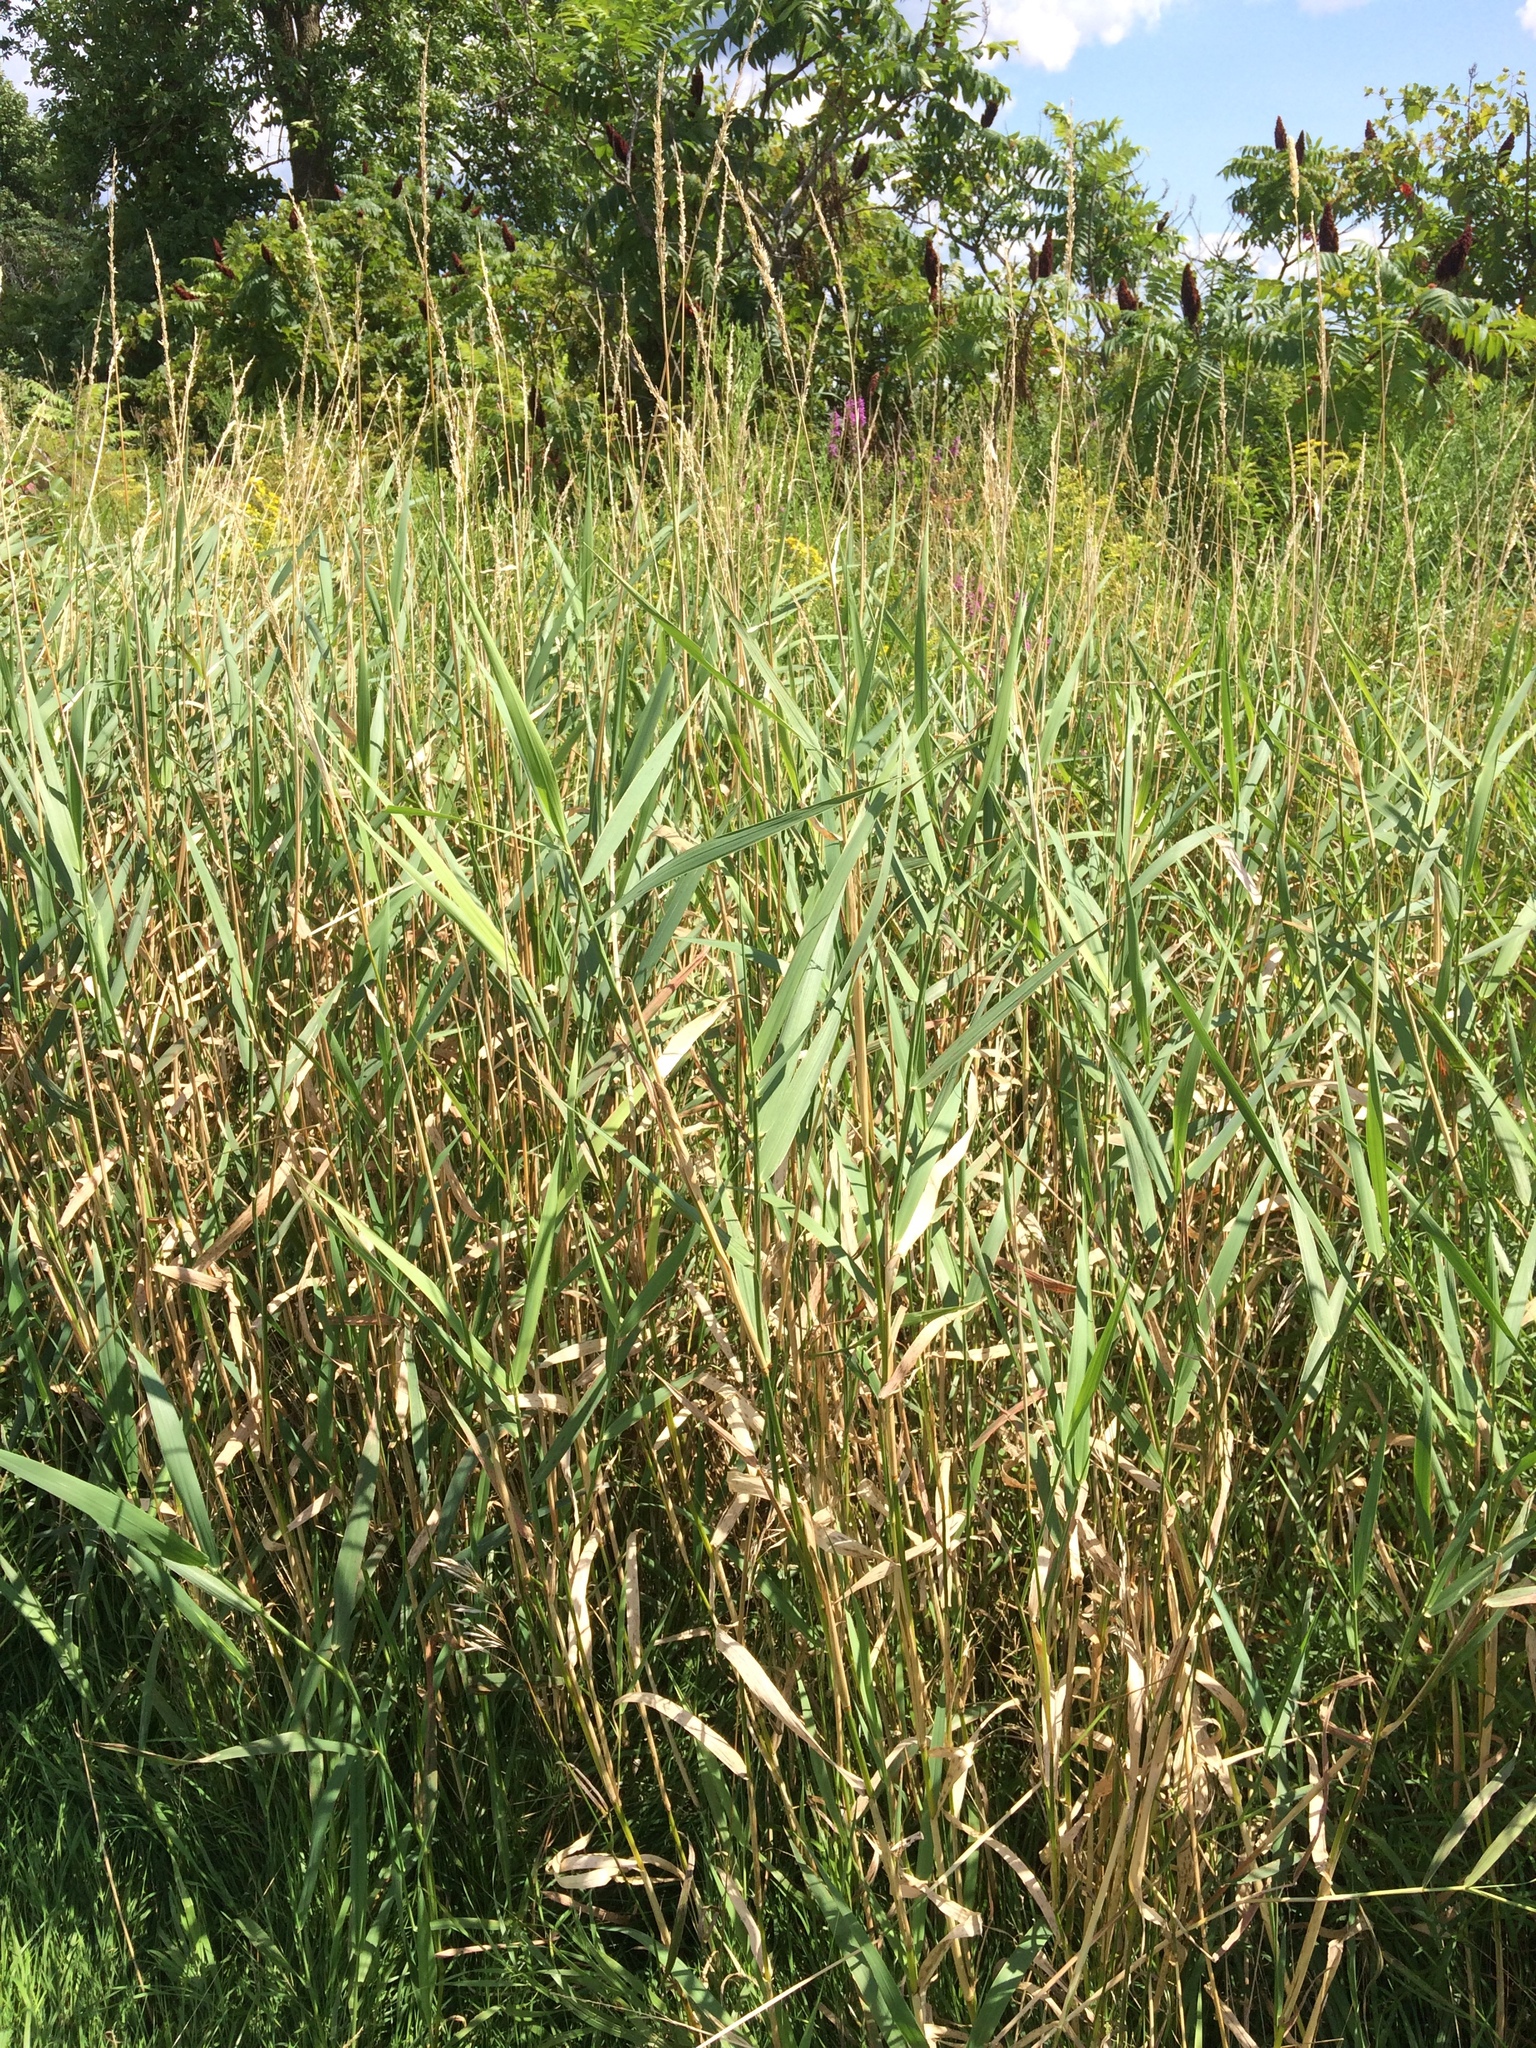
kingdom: Plantae
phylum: Tracheophyta
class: Liliopsida
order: Poales
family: Poaceae
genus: Phalaris
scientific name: Phalaris arundinacea
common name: Reed canary-grass
